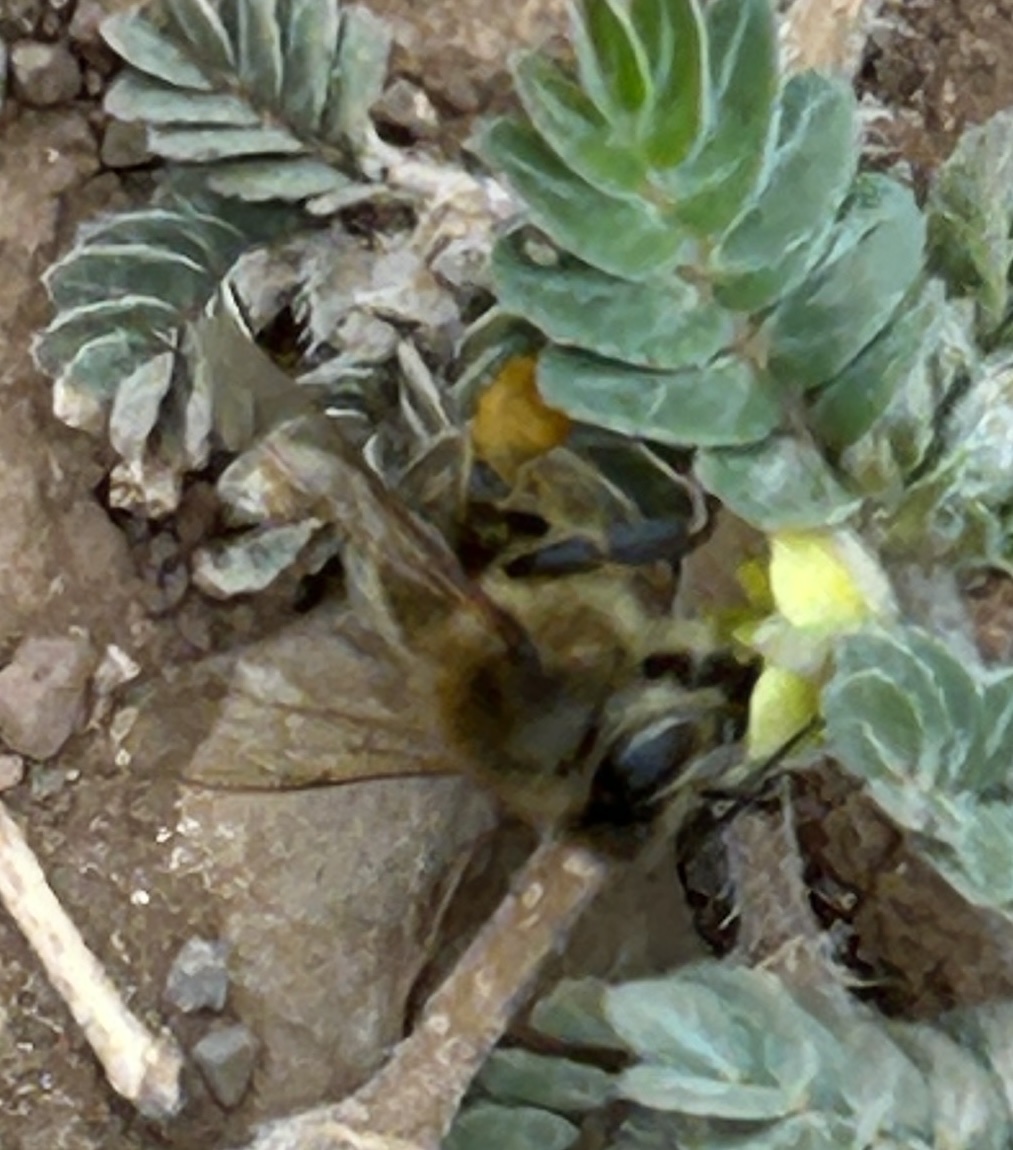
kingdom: Animalia
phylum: Arthropoda
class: Insecta
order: Hymenoptera
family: Apidae
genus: Apis
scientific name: Apis mellifera
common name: Honey bee
